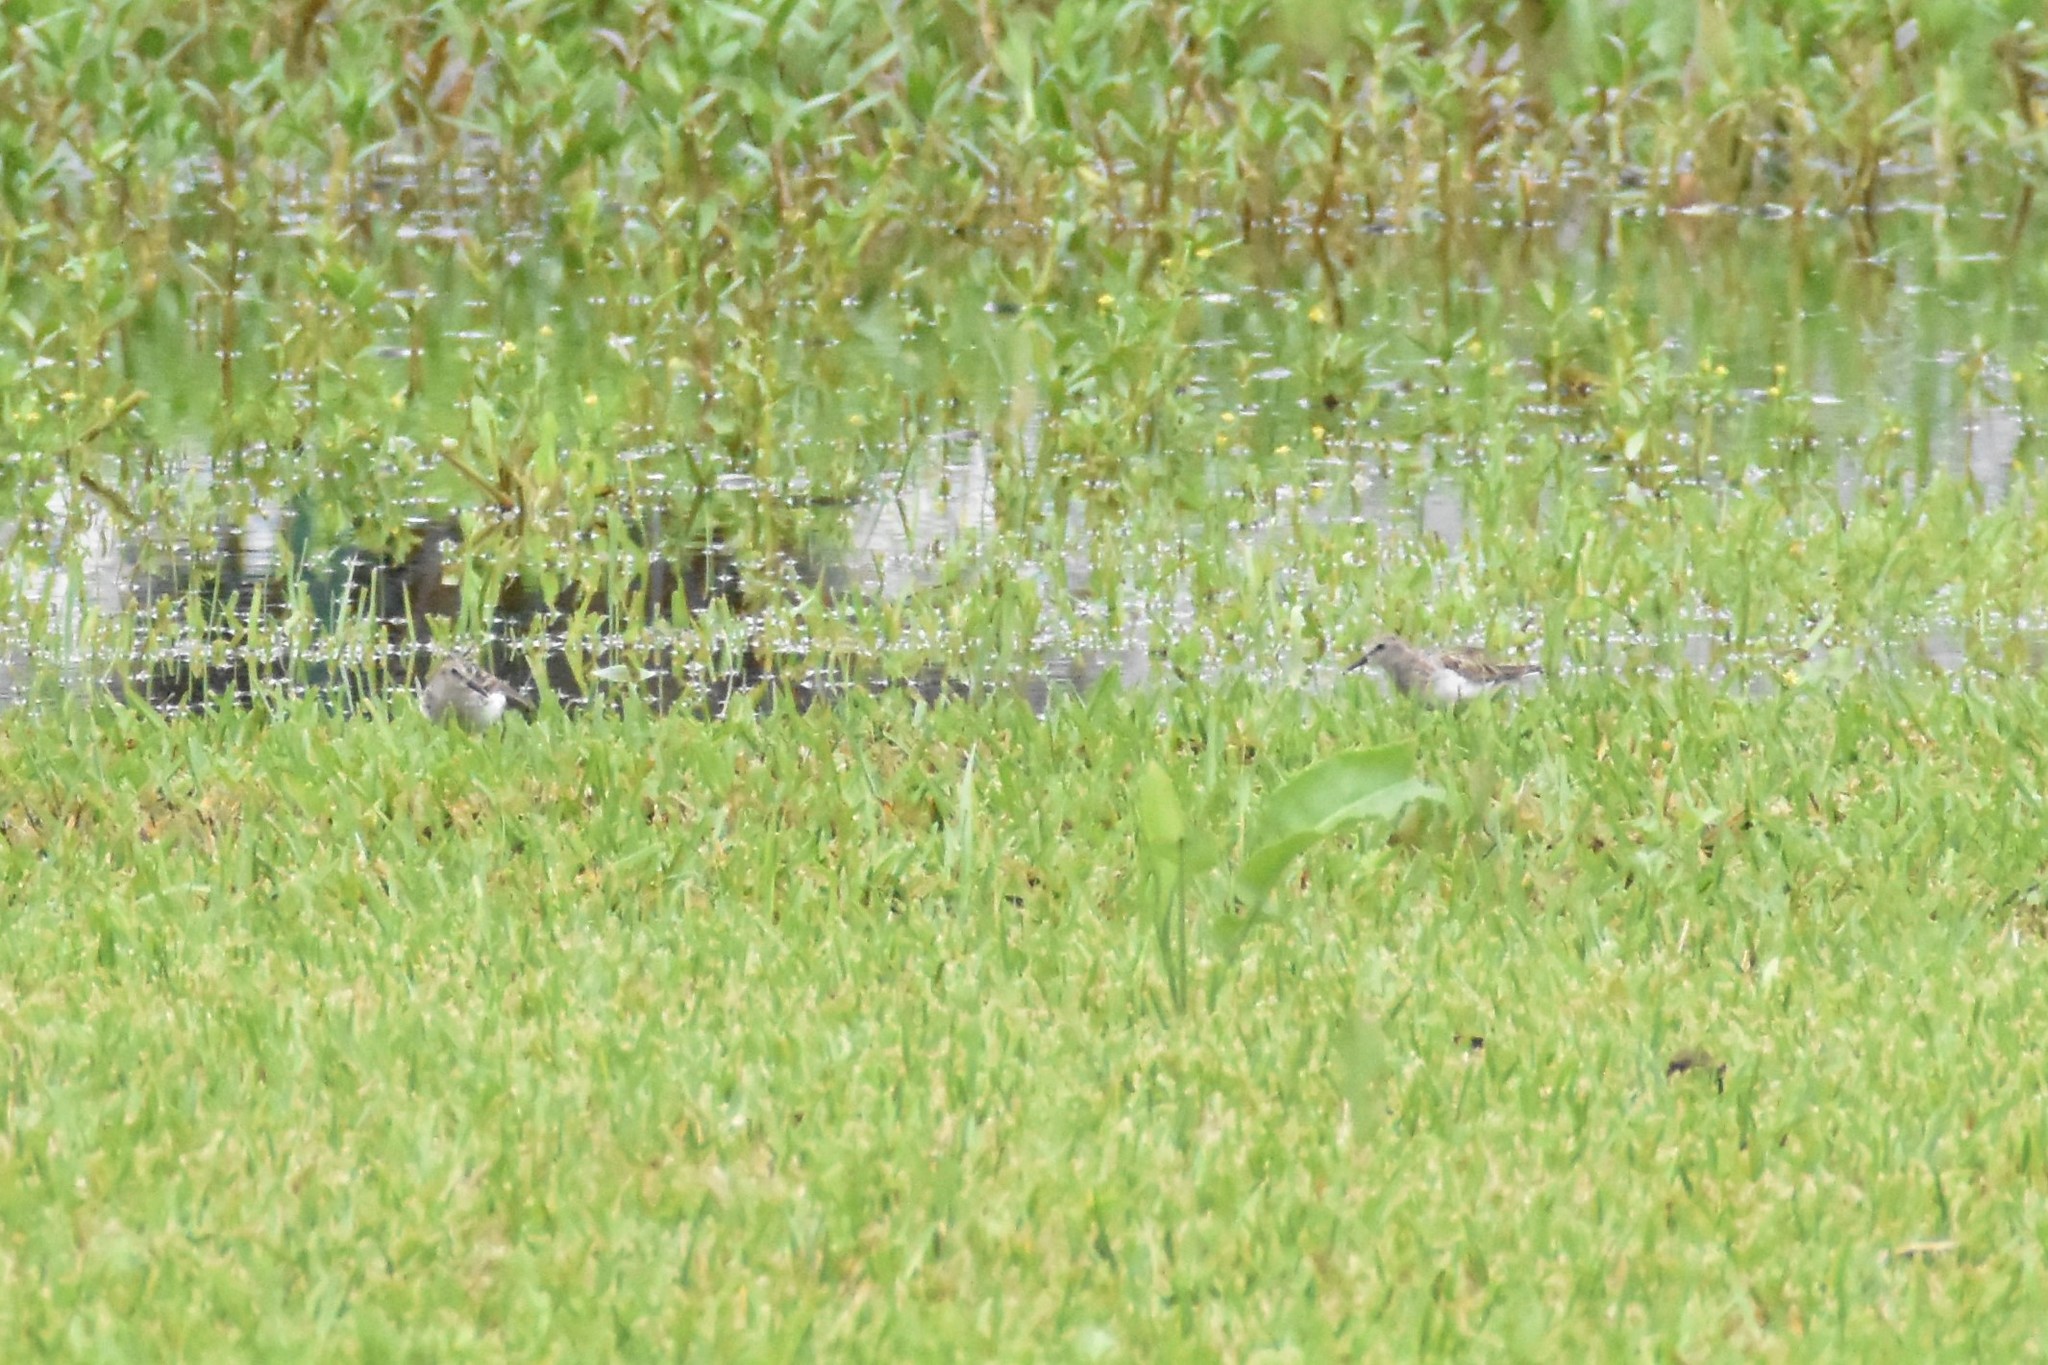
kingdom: Animalia
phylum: Chordata
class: Aves
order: Charadriiformes
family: Scolopacidae
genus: Calidris
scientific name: Calidris minutilla
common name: Least sandpiper
